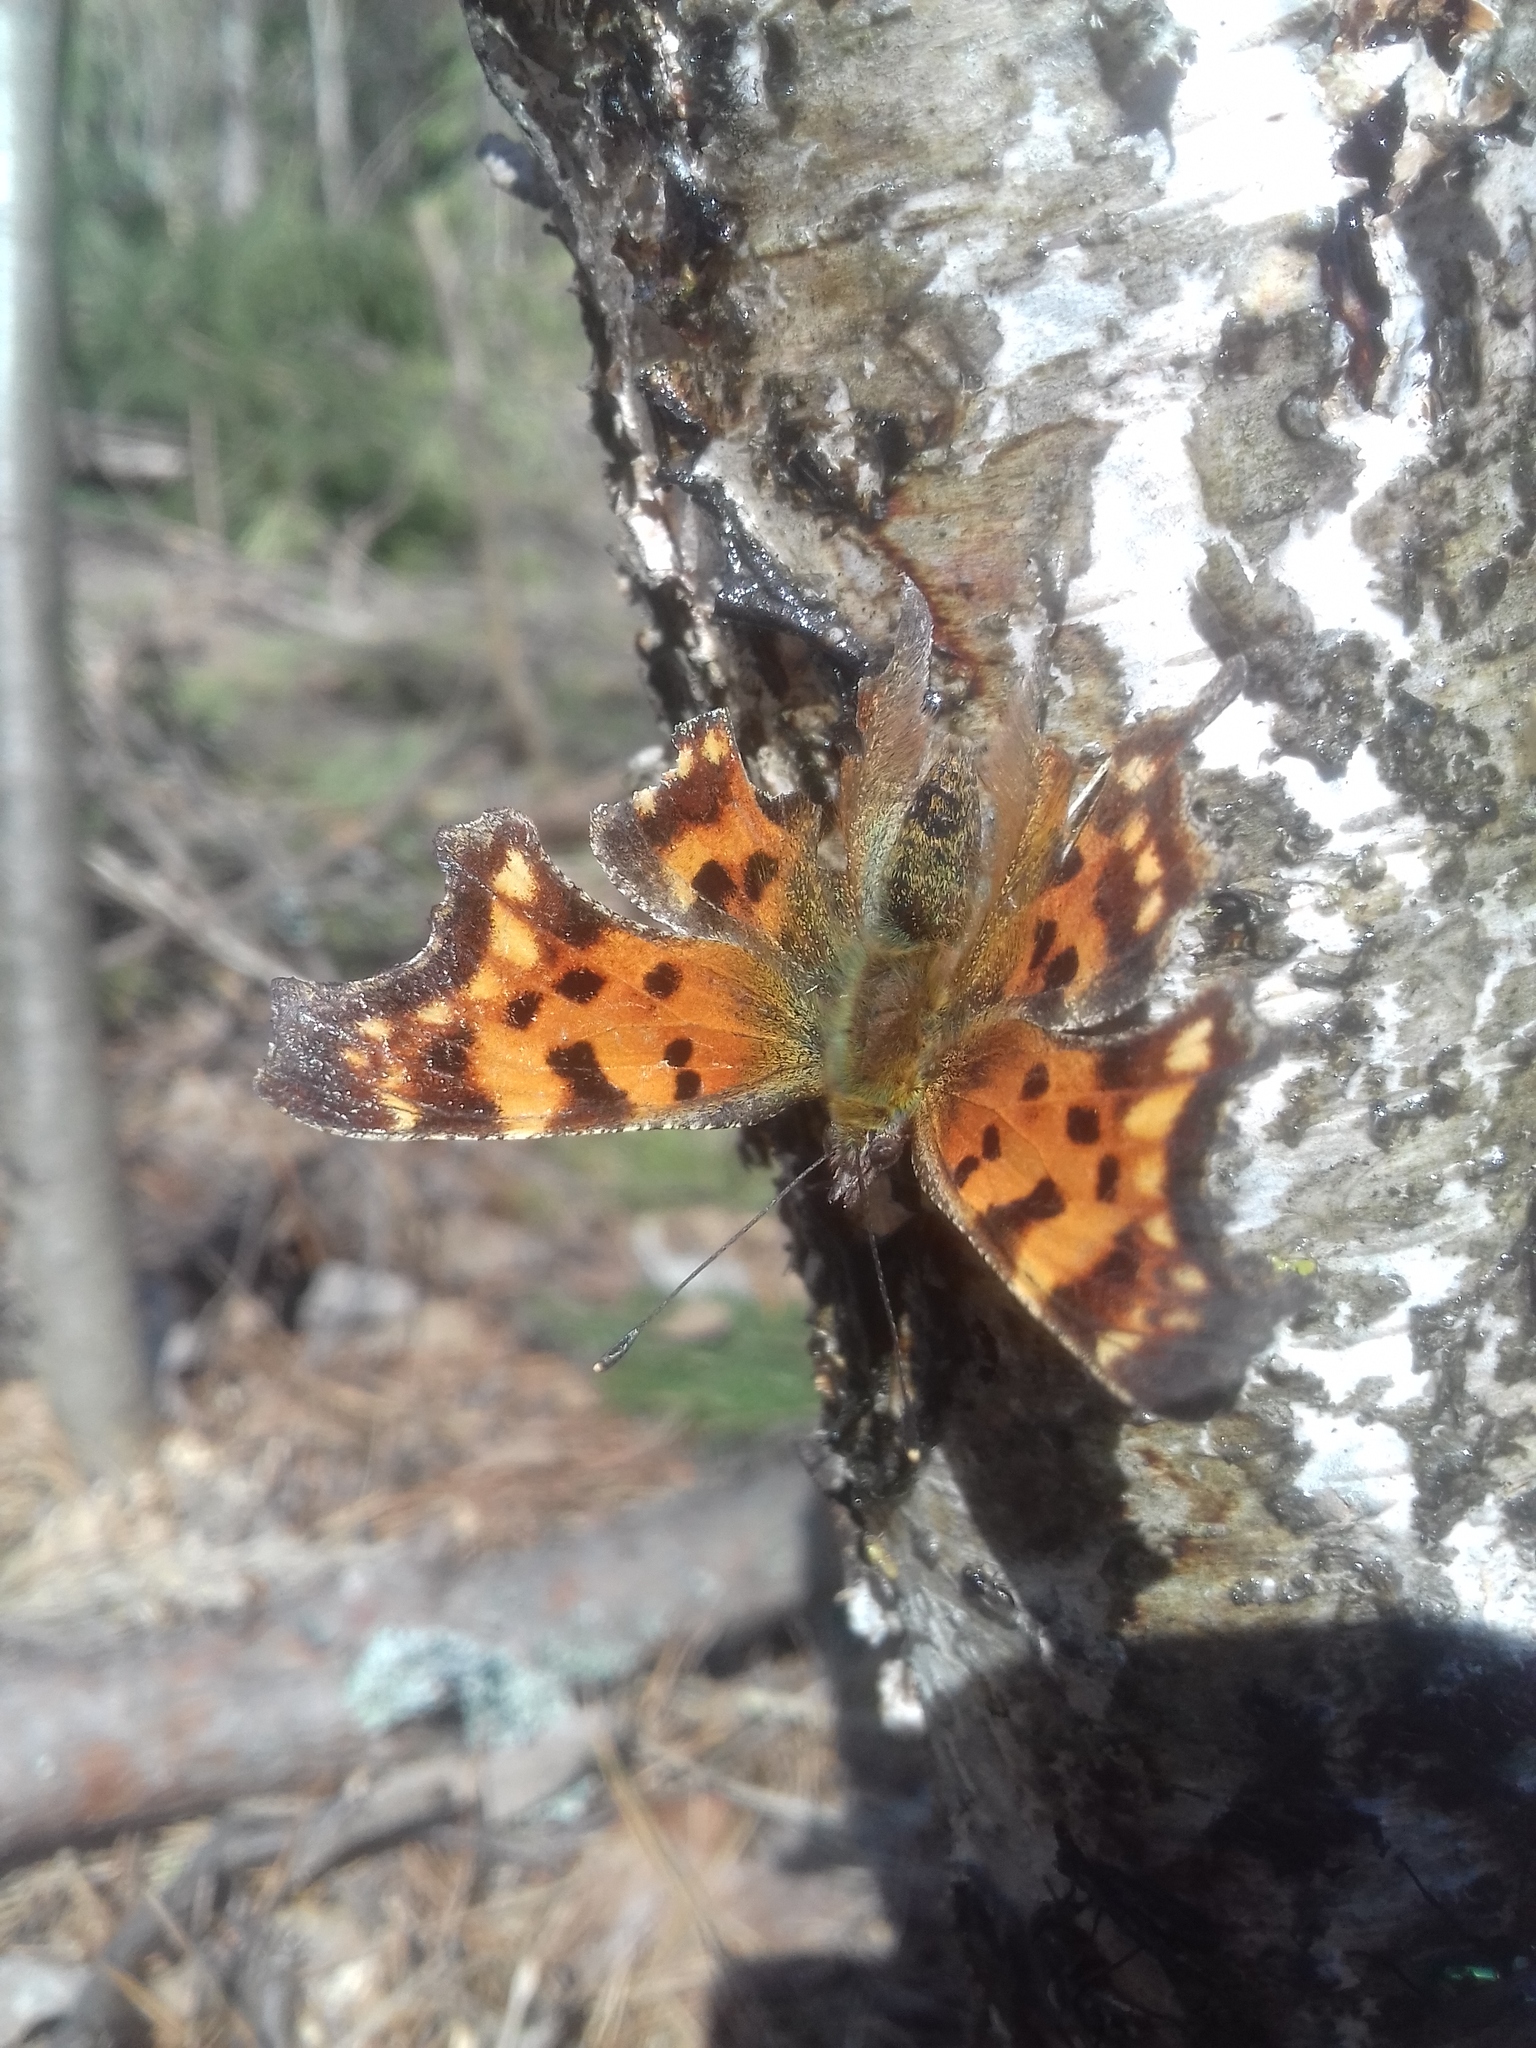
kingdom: Animalia
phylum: Arthropoda
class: Insecta
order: Lepidoptera
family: Nymphalidae
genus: Polygonia
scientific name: Polygonia c-album
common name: Comma
